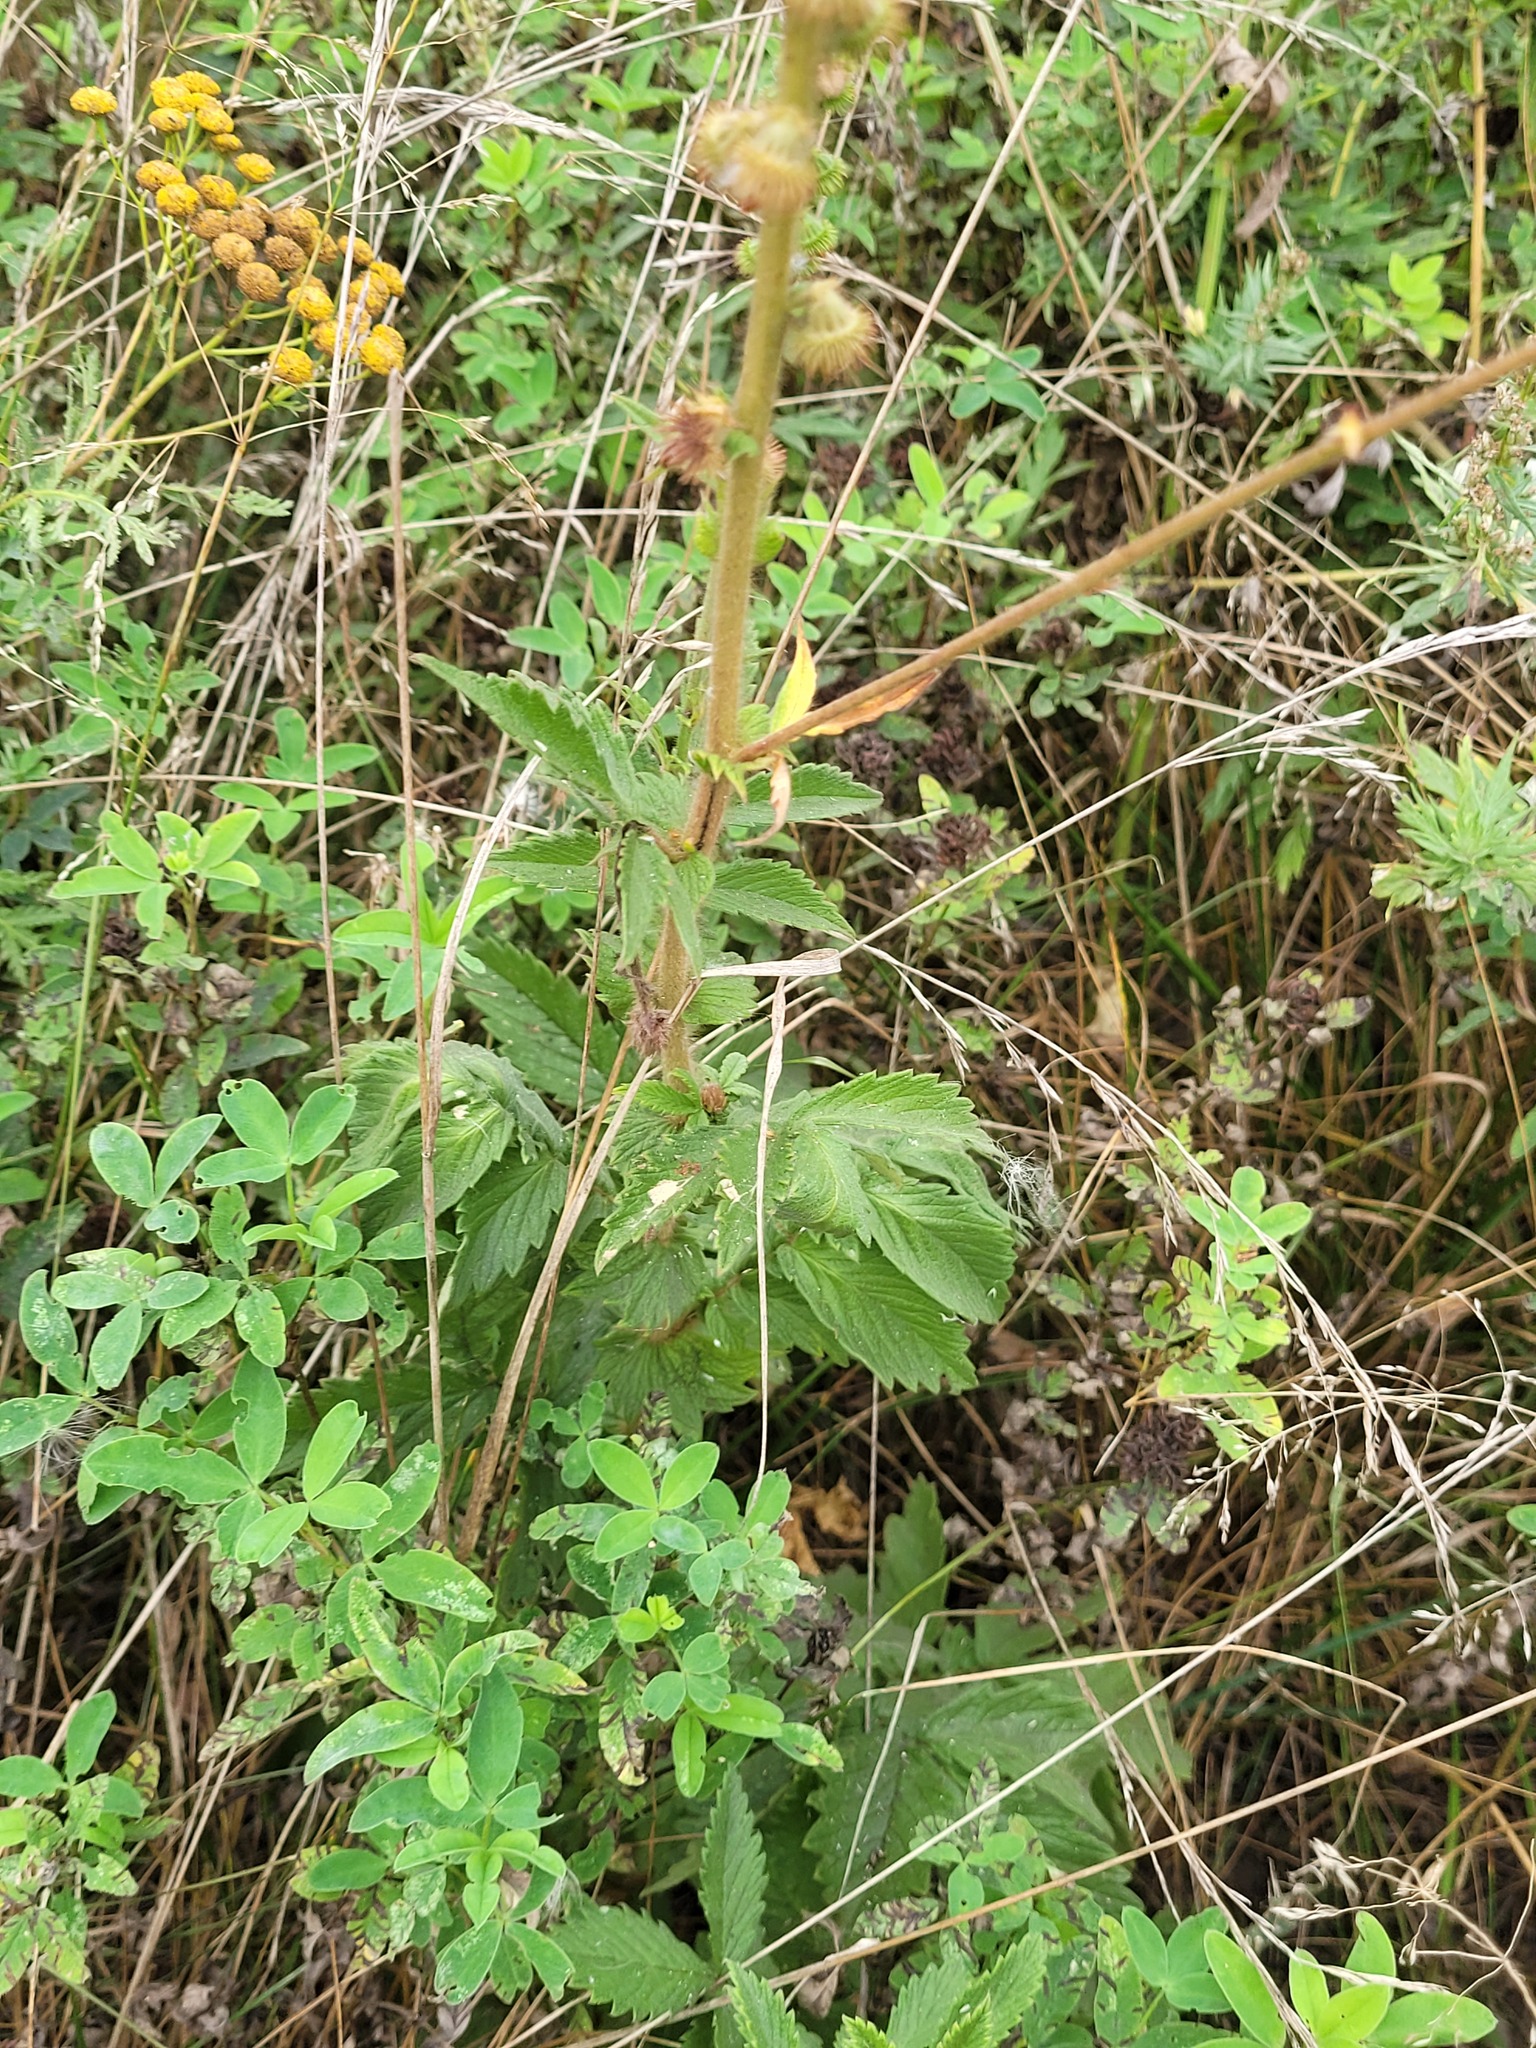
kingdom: Plantae
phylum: Tracheophyta
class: Magnoliopsida
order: Rosales
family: Rosaceae
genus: Agrimonia
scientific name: Agrimonia eupatoria
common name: Agrimony
